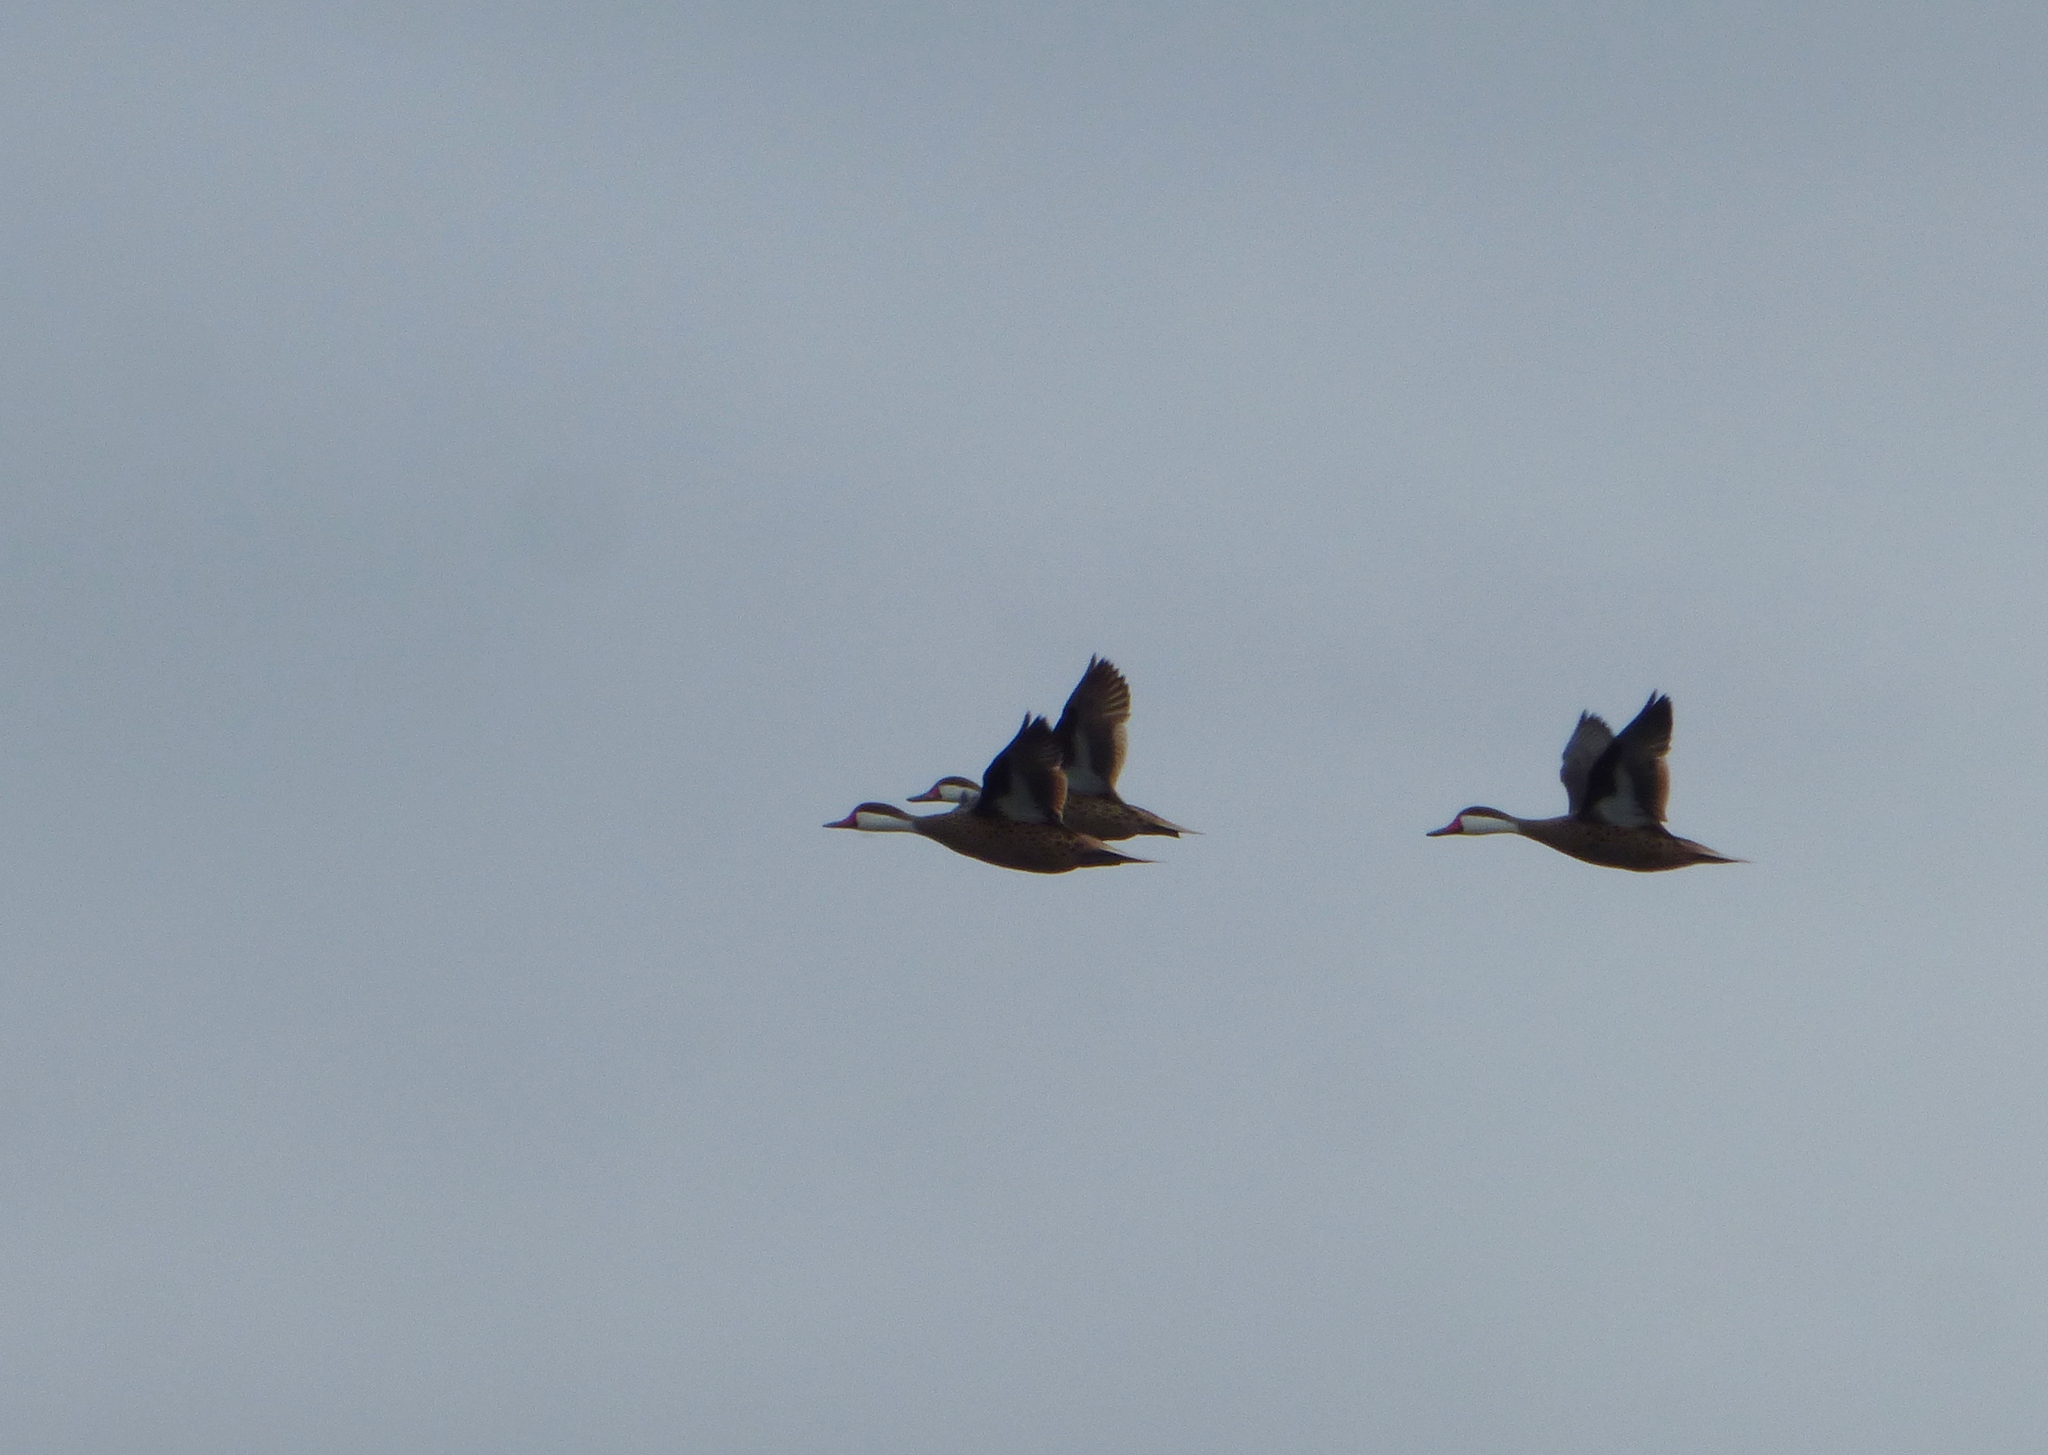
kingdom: Animalia
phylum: Chordata
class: Aves
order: Anseriformes
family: Anatidae
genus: Anas
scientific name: Anas bahamensis
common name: White-cheeked pintail
